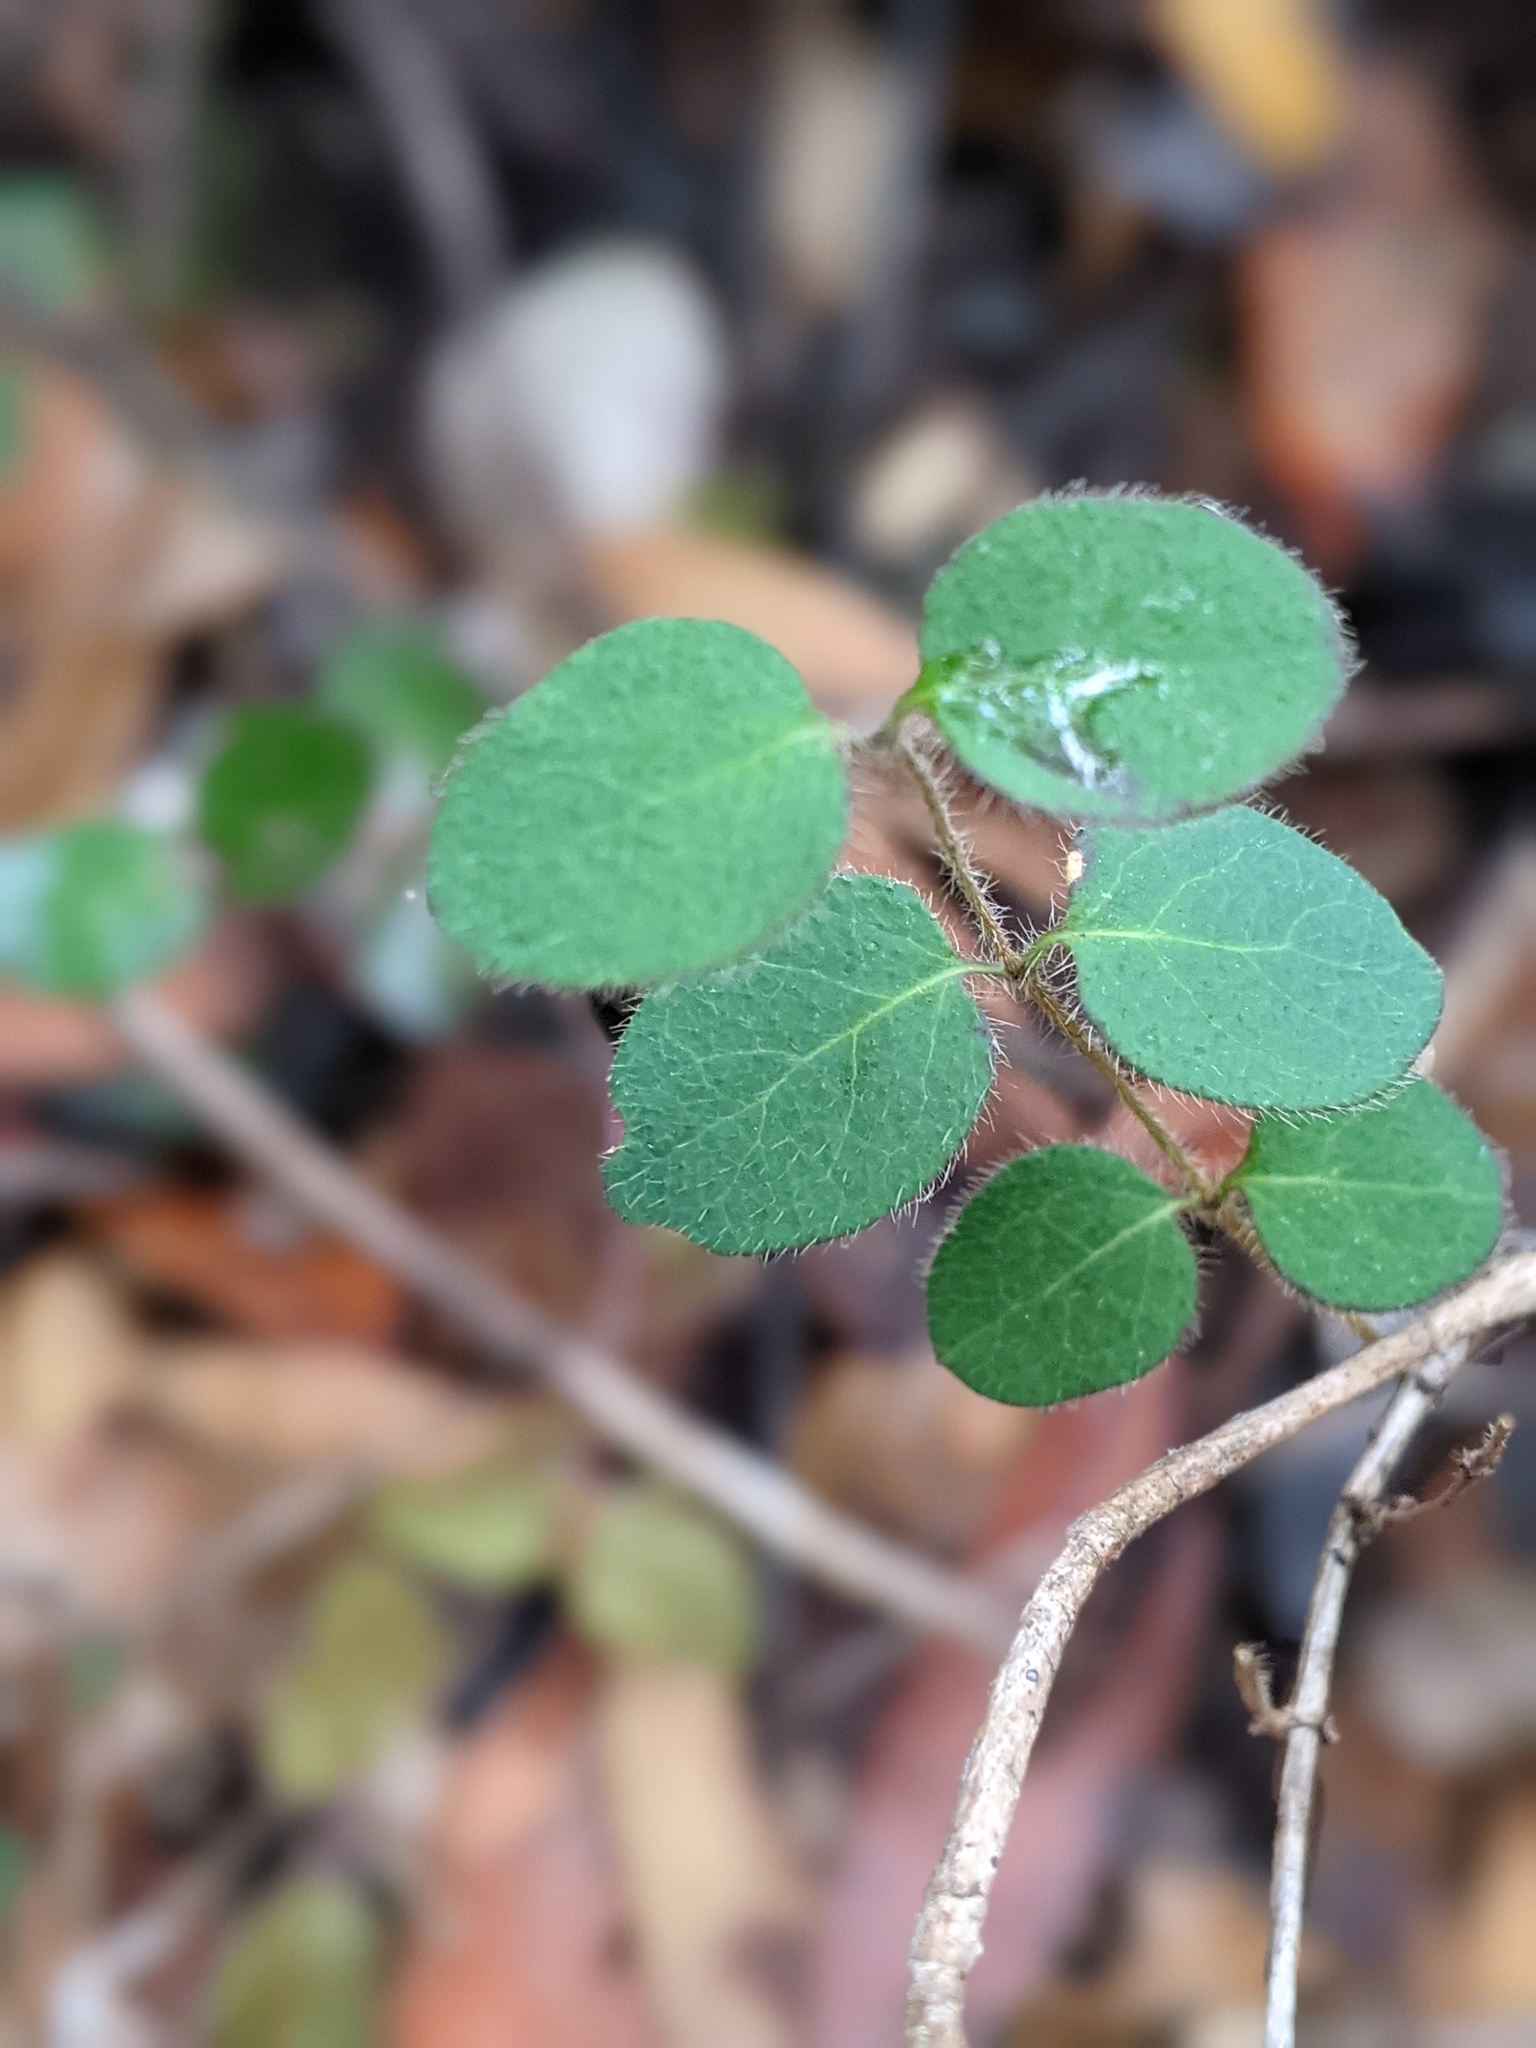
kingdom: Plantae
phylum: Tracheophyta
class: Magnoliopsida
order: Dipsacales
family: Caprifoliaceae
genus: Lonicera
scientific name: Lonicera hispidula
